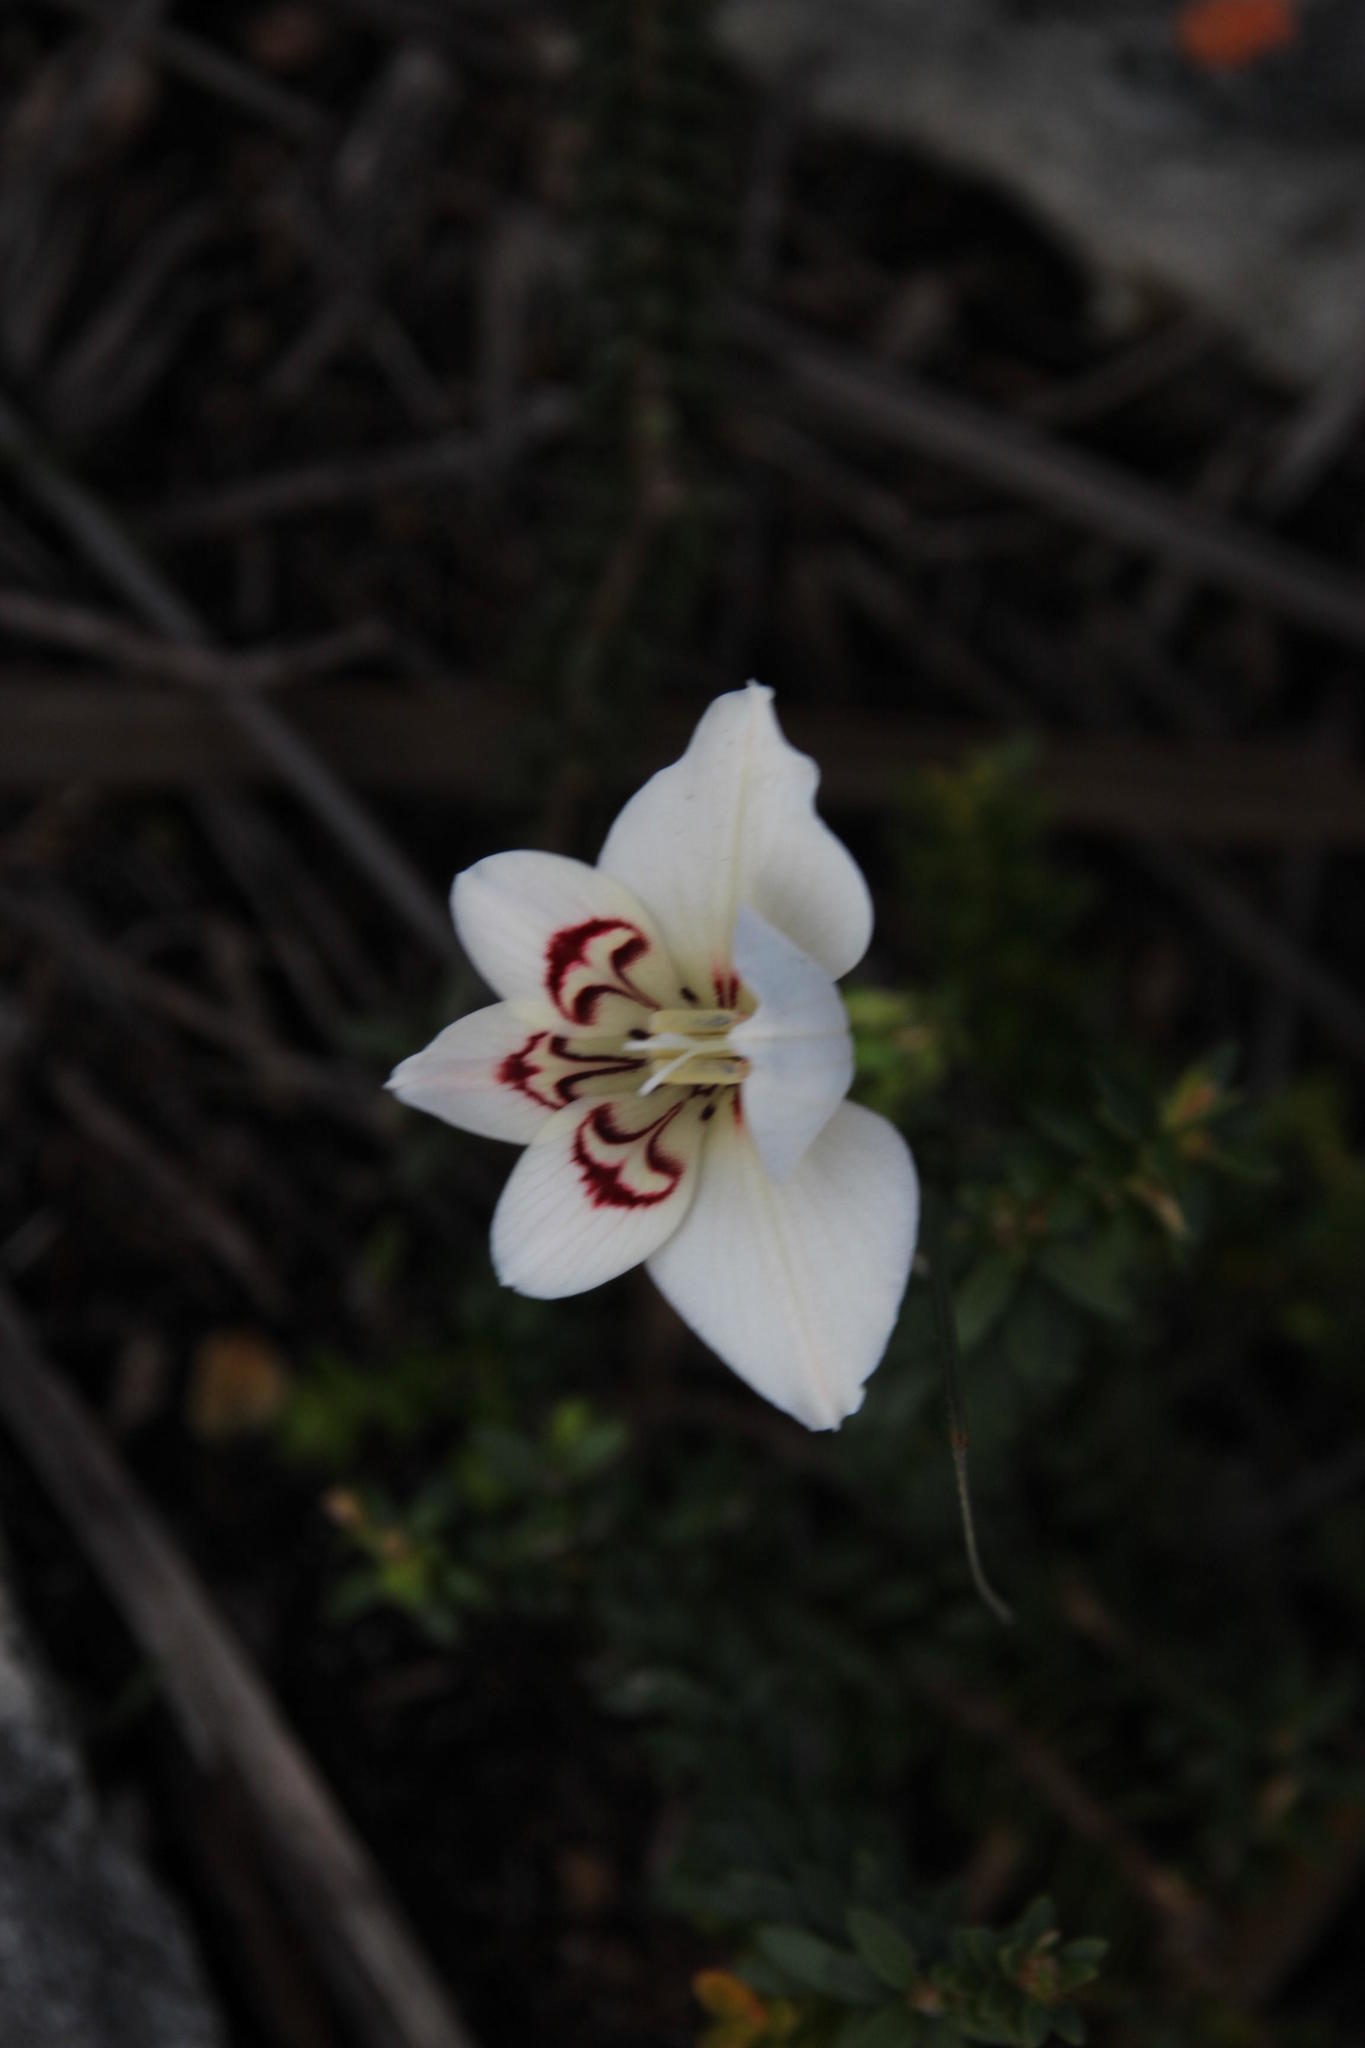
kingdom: Plantae
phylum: Tracheophyta
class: Liliopsida
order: Asparagales
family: Iridaceae
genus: Gladiolus
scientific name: Gladiolus debilis
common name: Painted-lady
